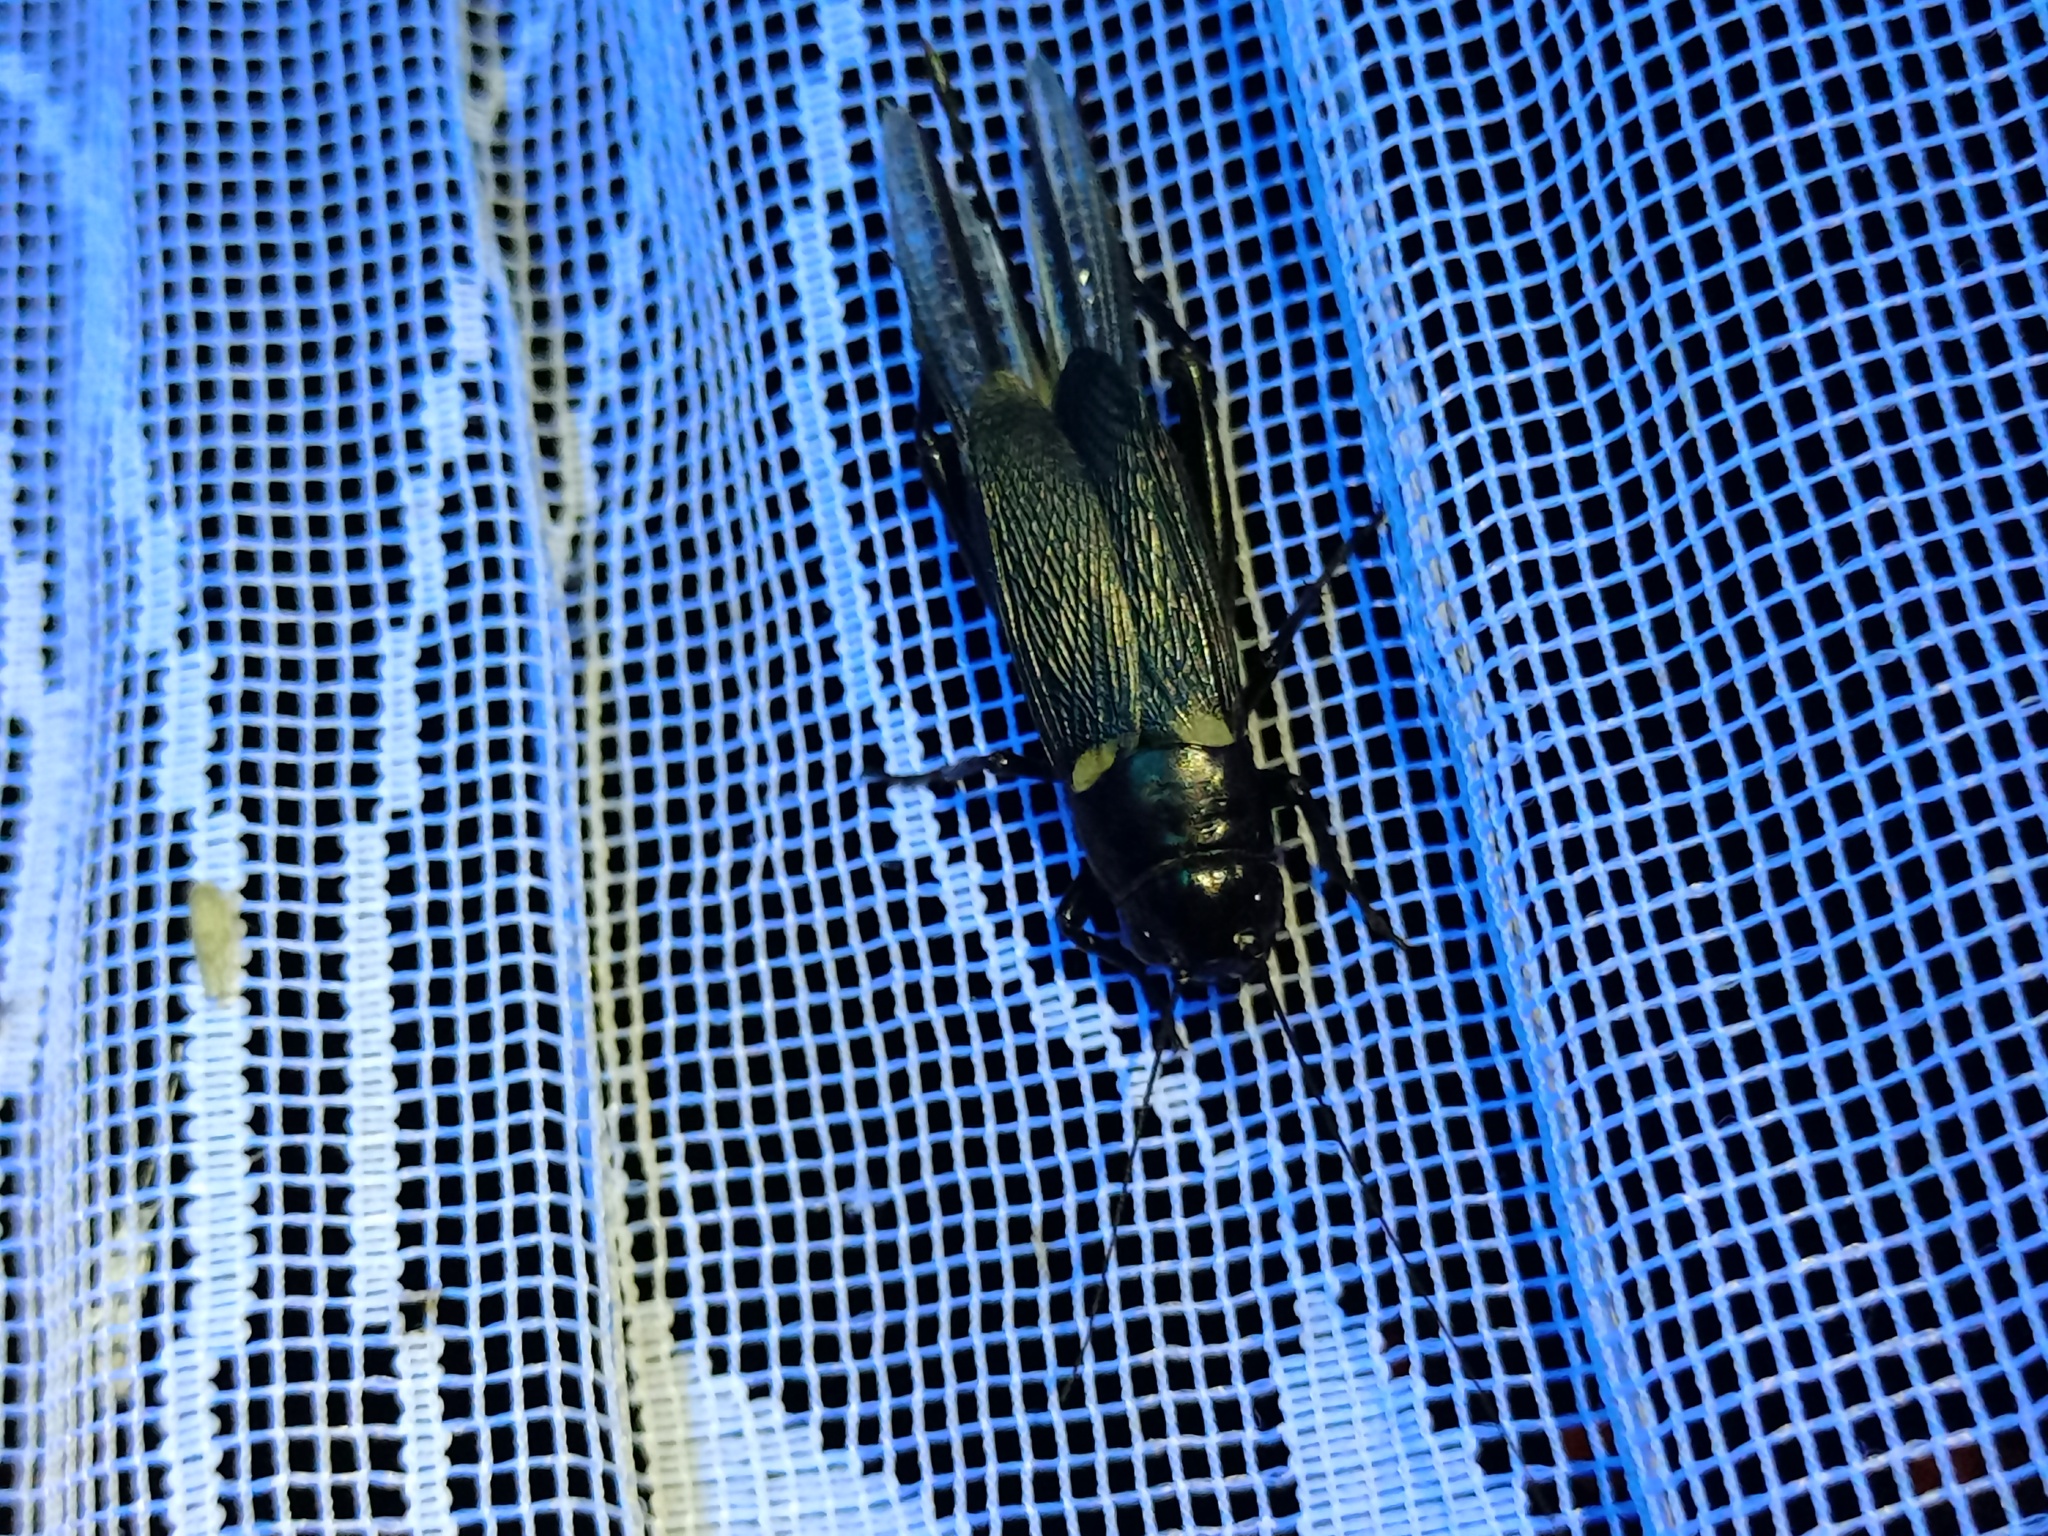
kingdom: Animalia
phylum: Arthropoda
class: Insecta
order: Orthoptera
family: Gryllidae
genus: Gryllus
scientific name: Gryllus bimaculatus
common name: Two-spotted cricket
